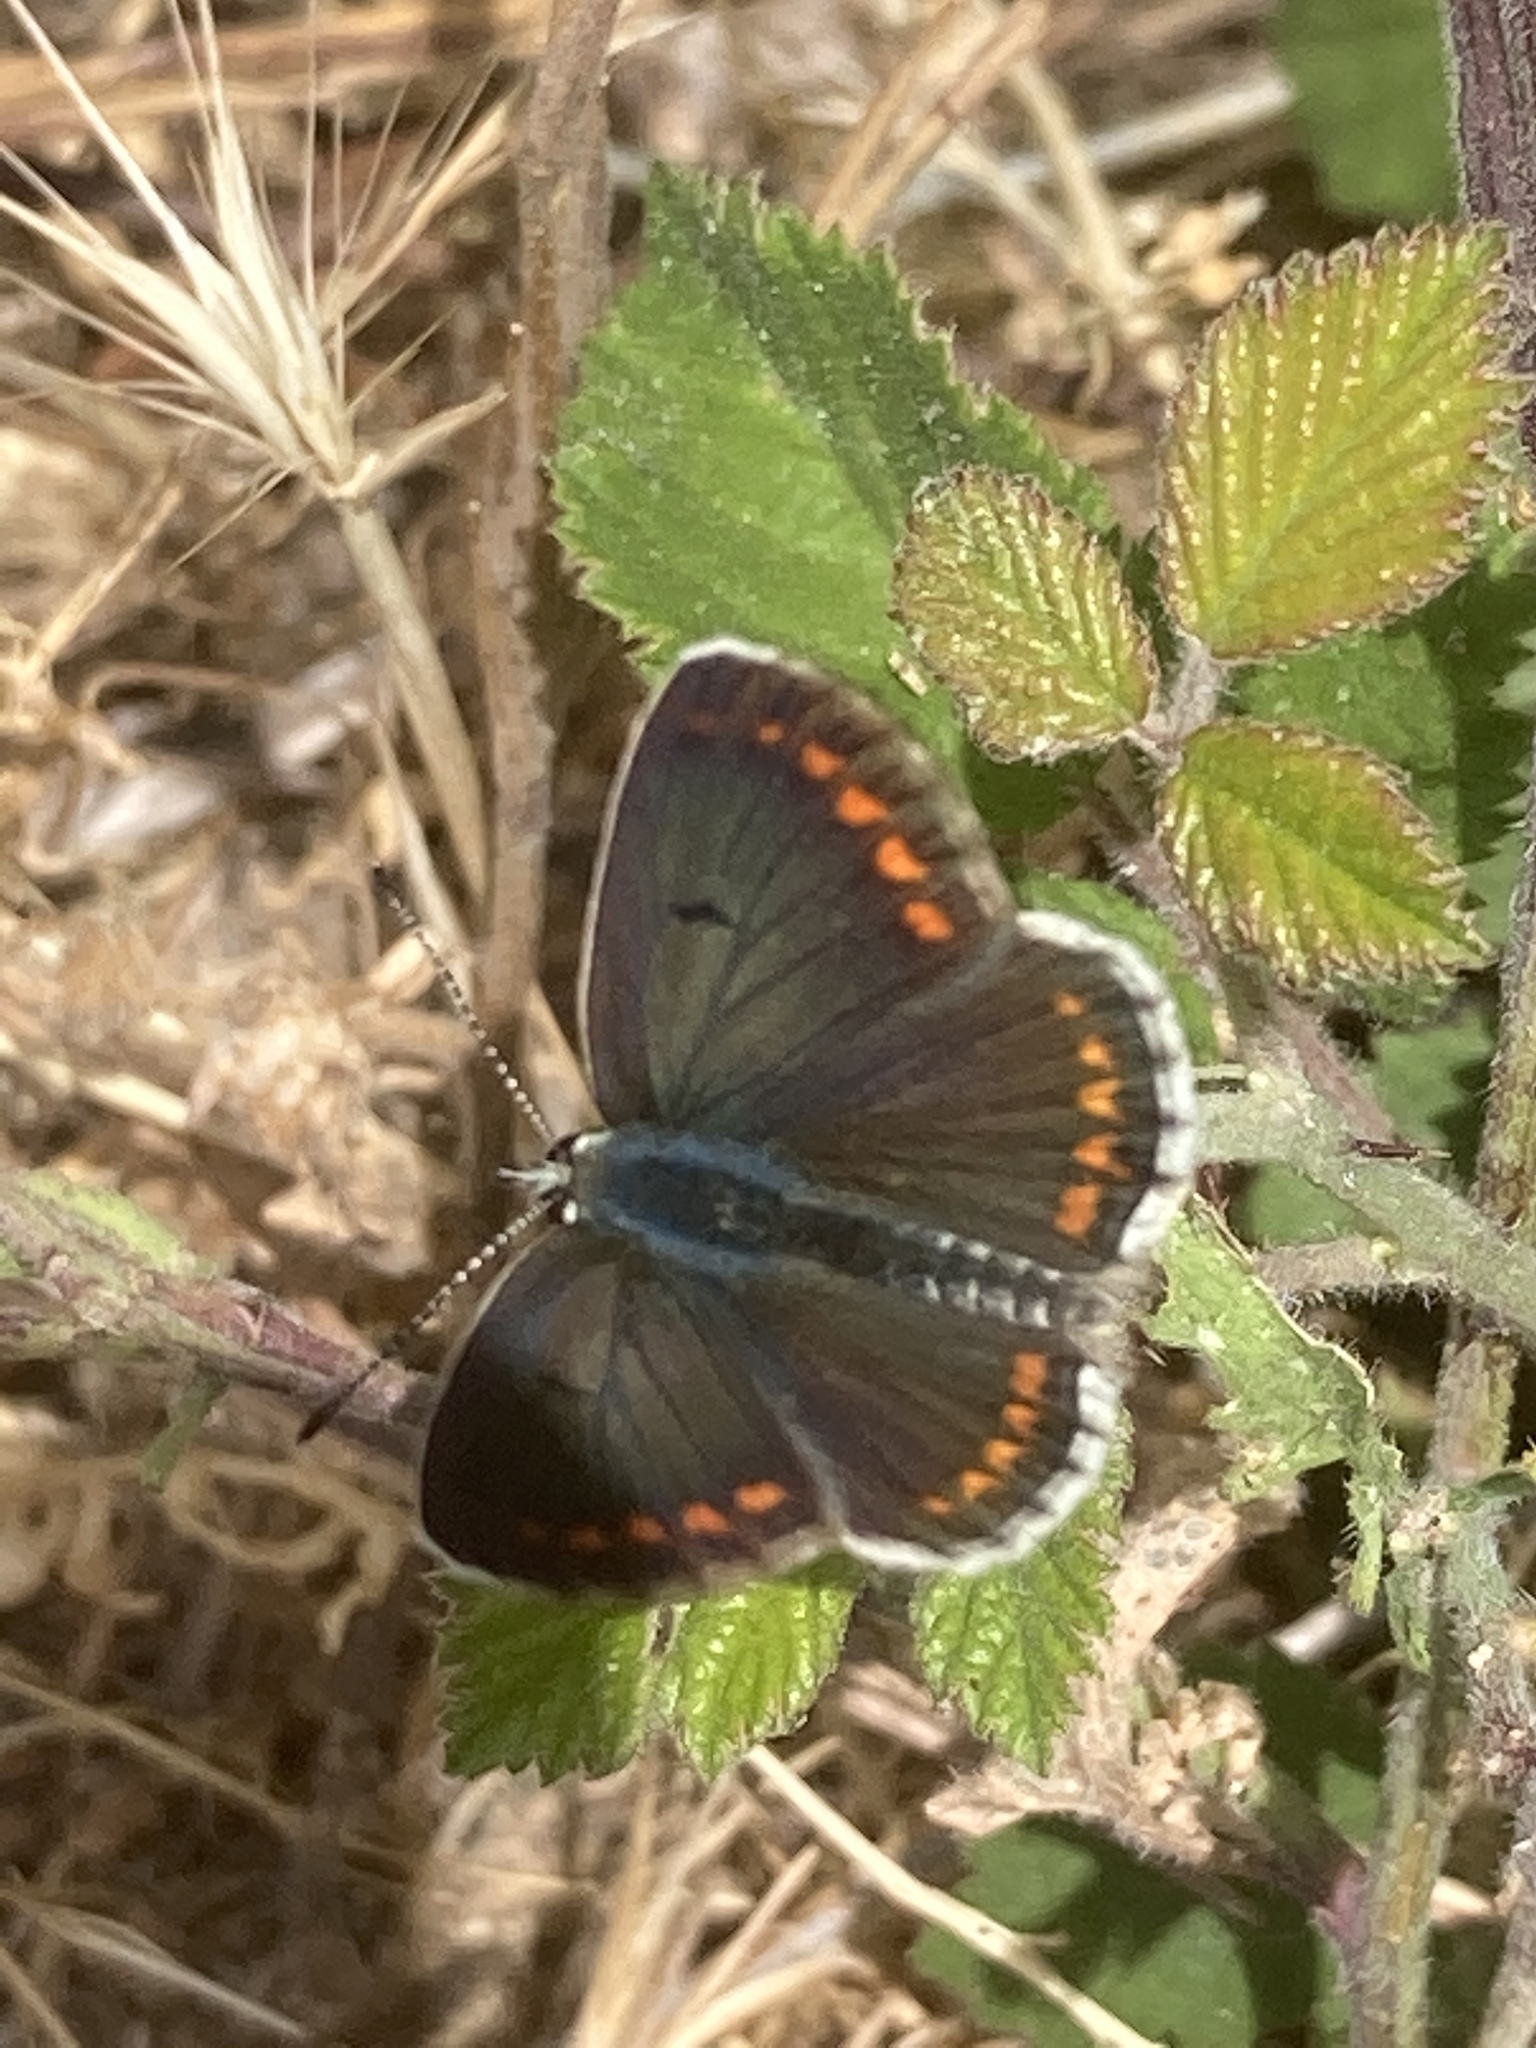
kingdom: Animalia
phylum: Arthropoda
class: Insecta
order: Lepidoptera
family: Lycaenidae
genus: Aricia
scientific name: Aricia agestis
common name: Brown argus
